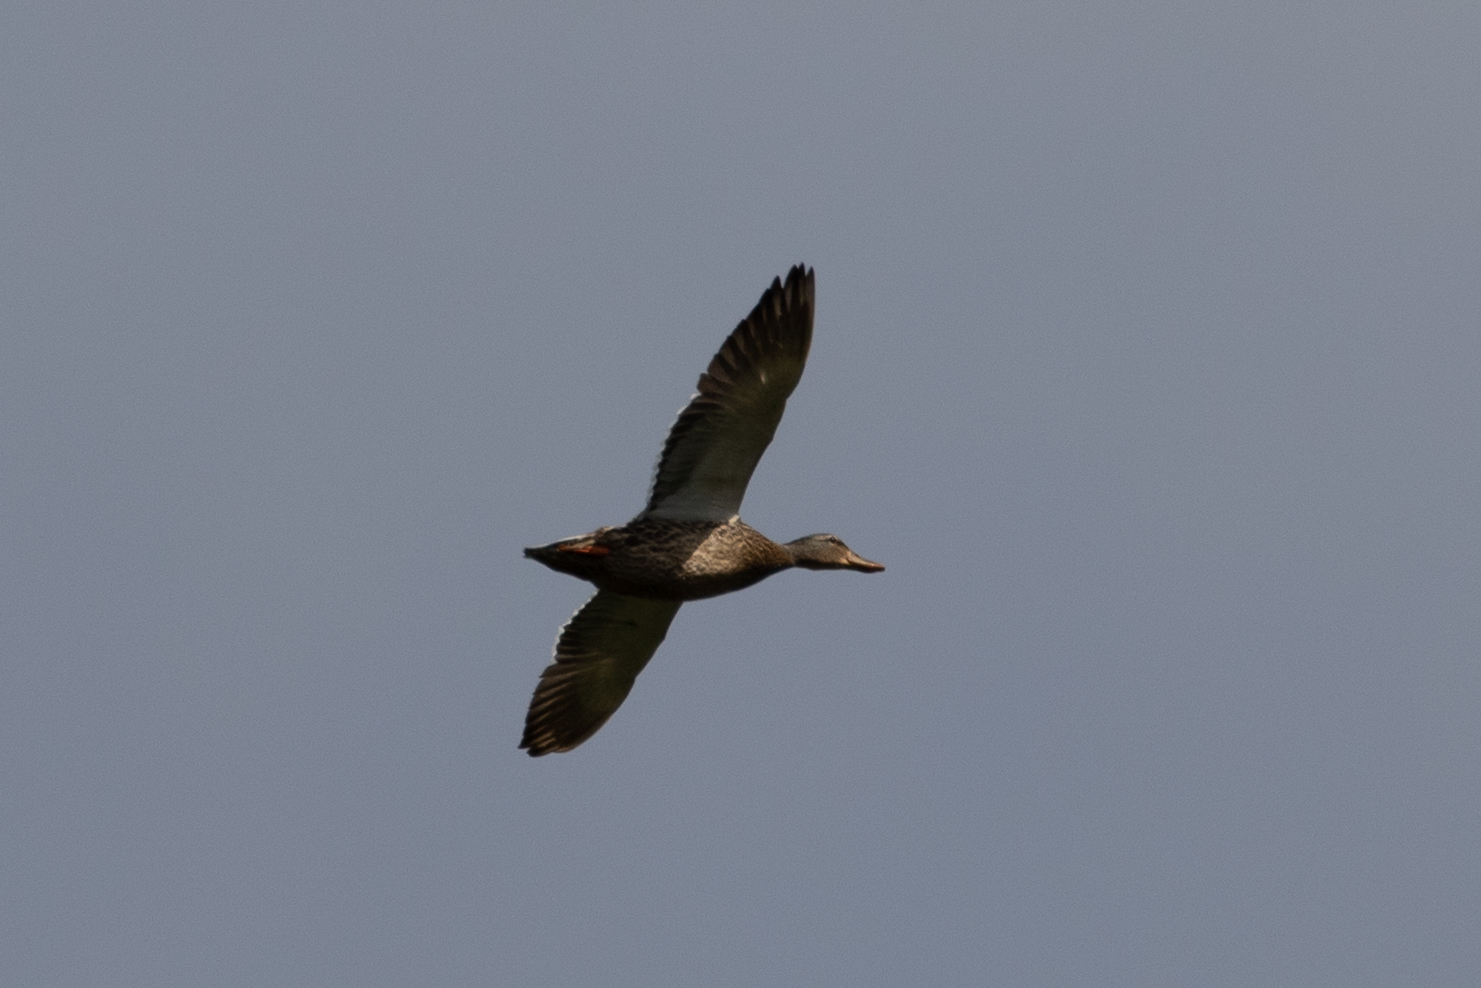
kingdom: Animalia
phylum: Chordata
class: Aves
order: Anseriformes
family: Anatidae
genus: Anas
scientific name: Anas platyrhynchos
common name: Mallard
